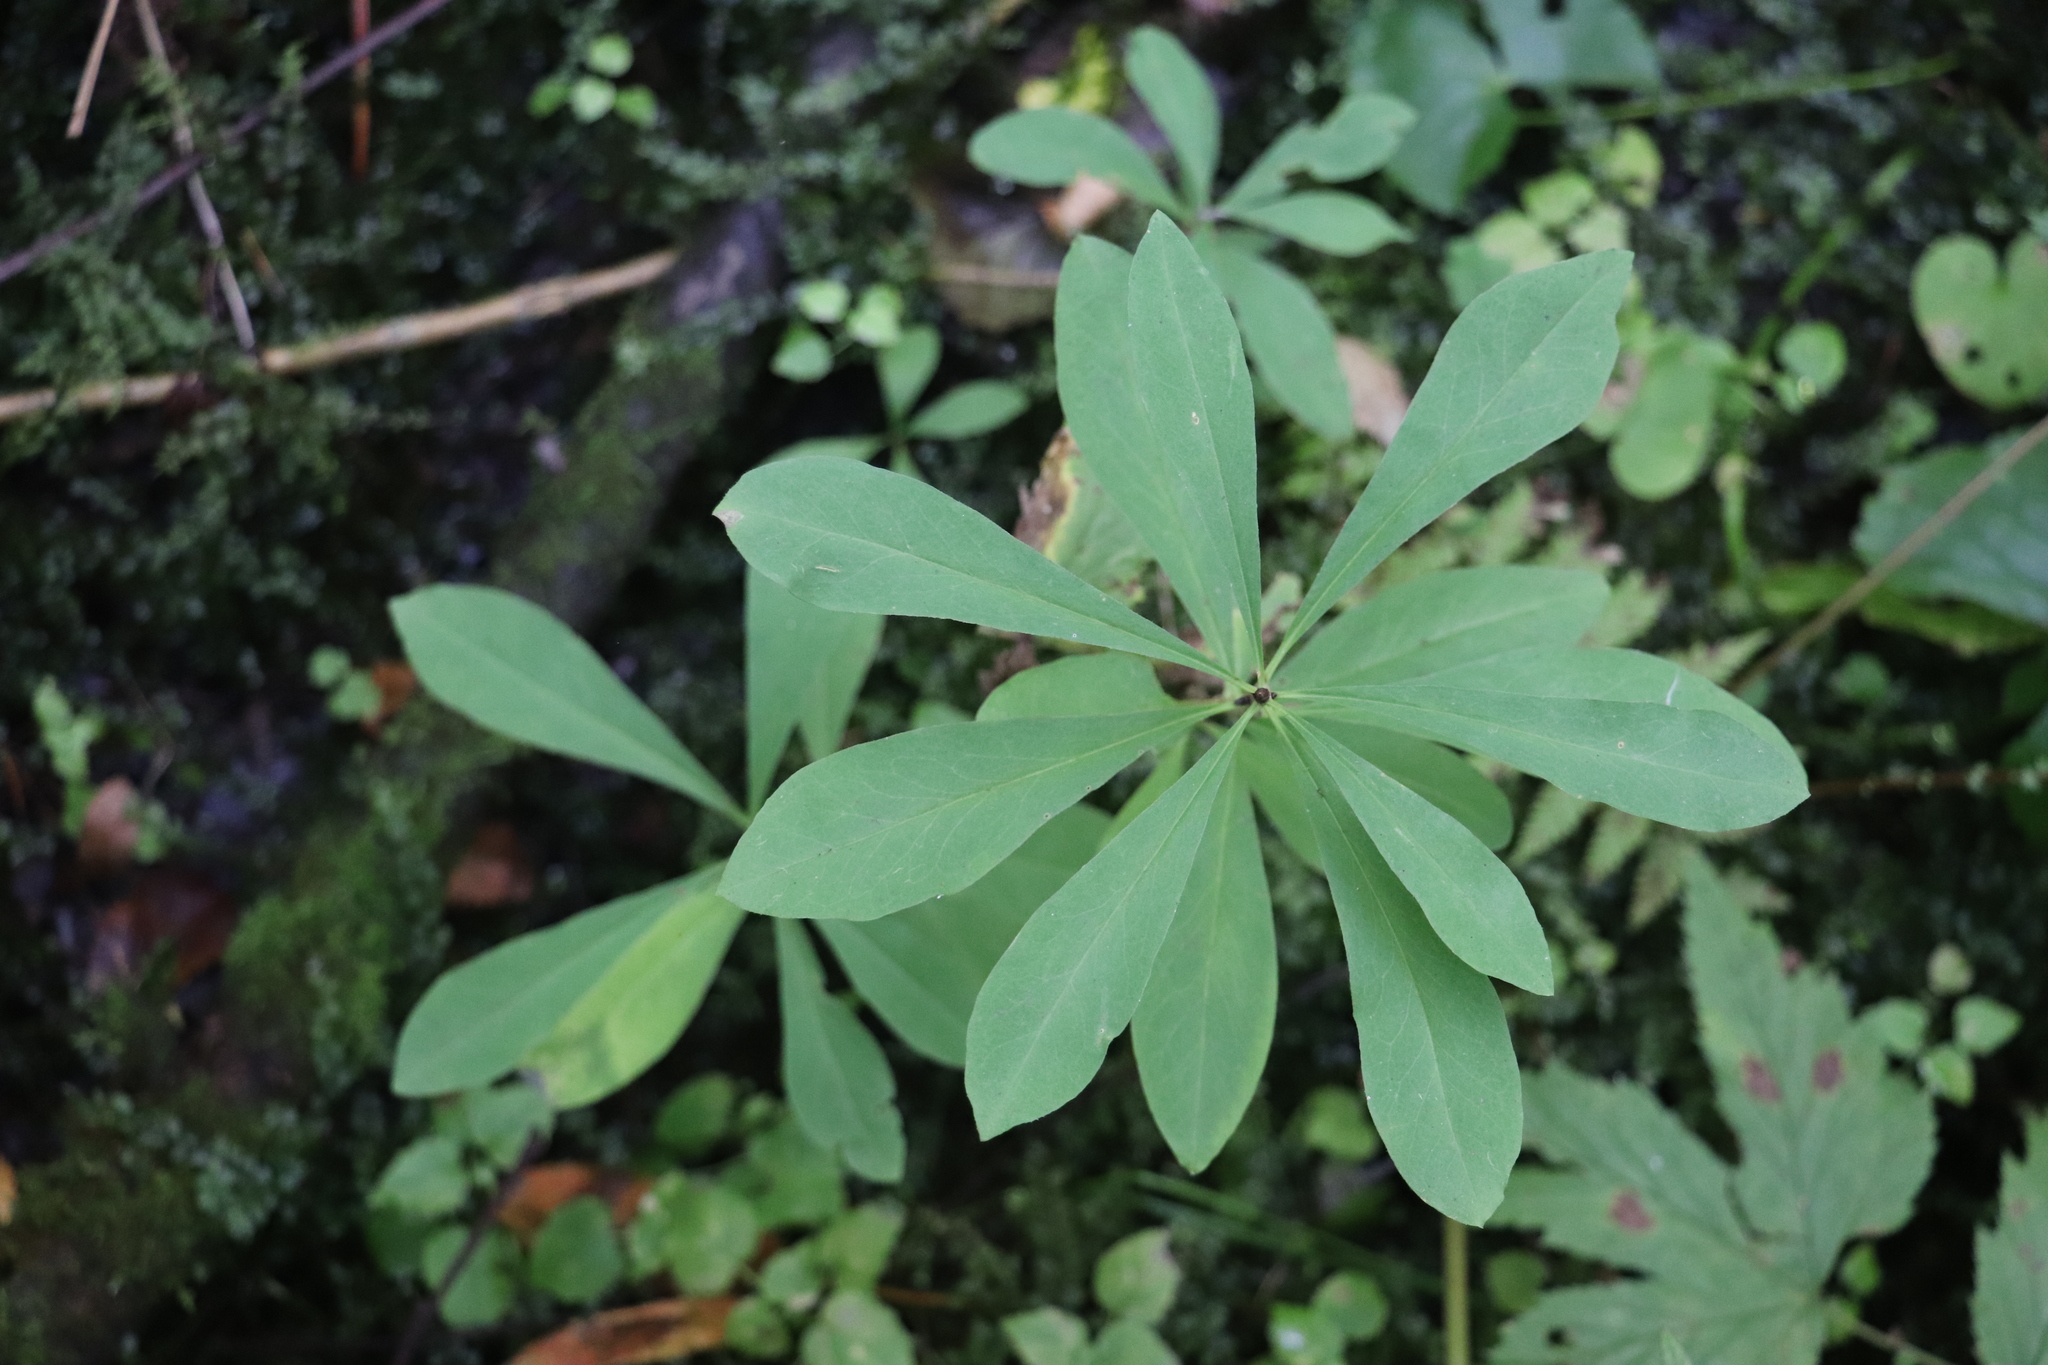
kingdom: Plantae
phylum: Tracheophyta
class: Magnoliopsida
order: Malvales
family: Thymelaeaceae
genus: Daphne
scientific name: Daphne mezereum
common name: Mezereon
